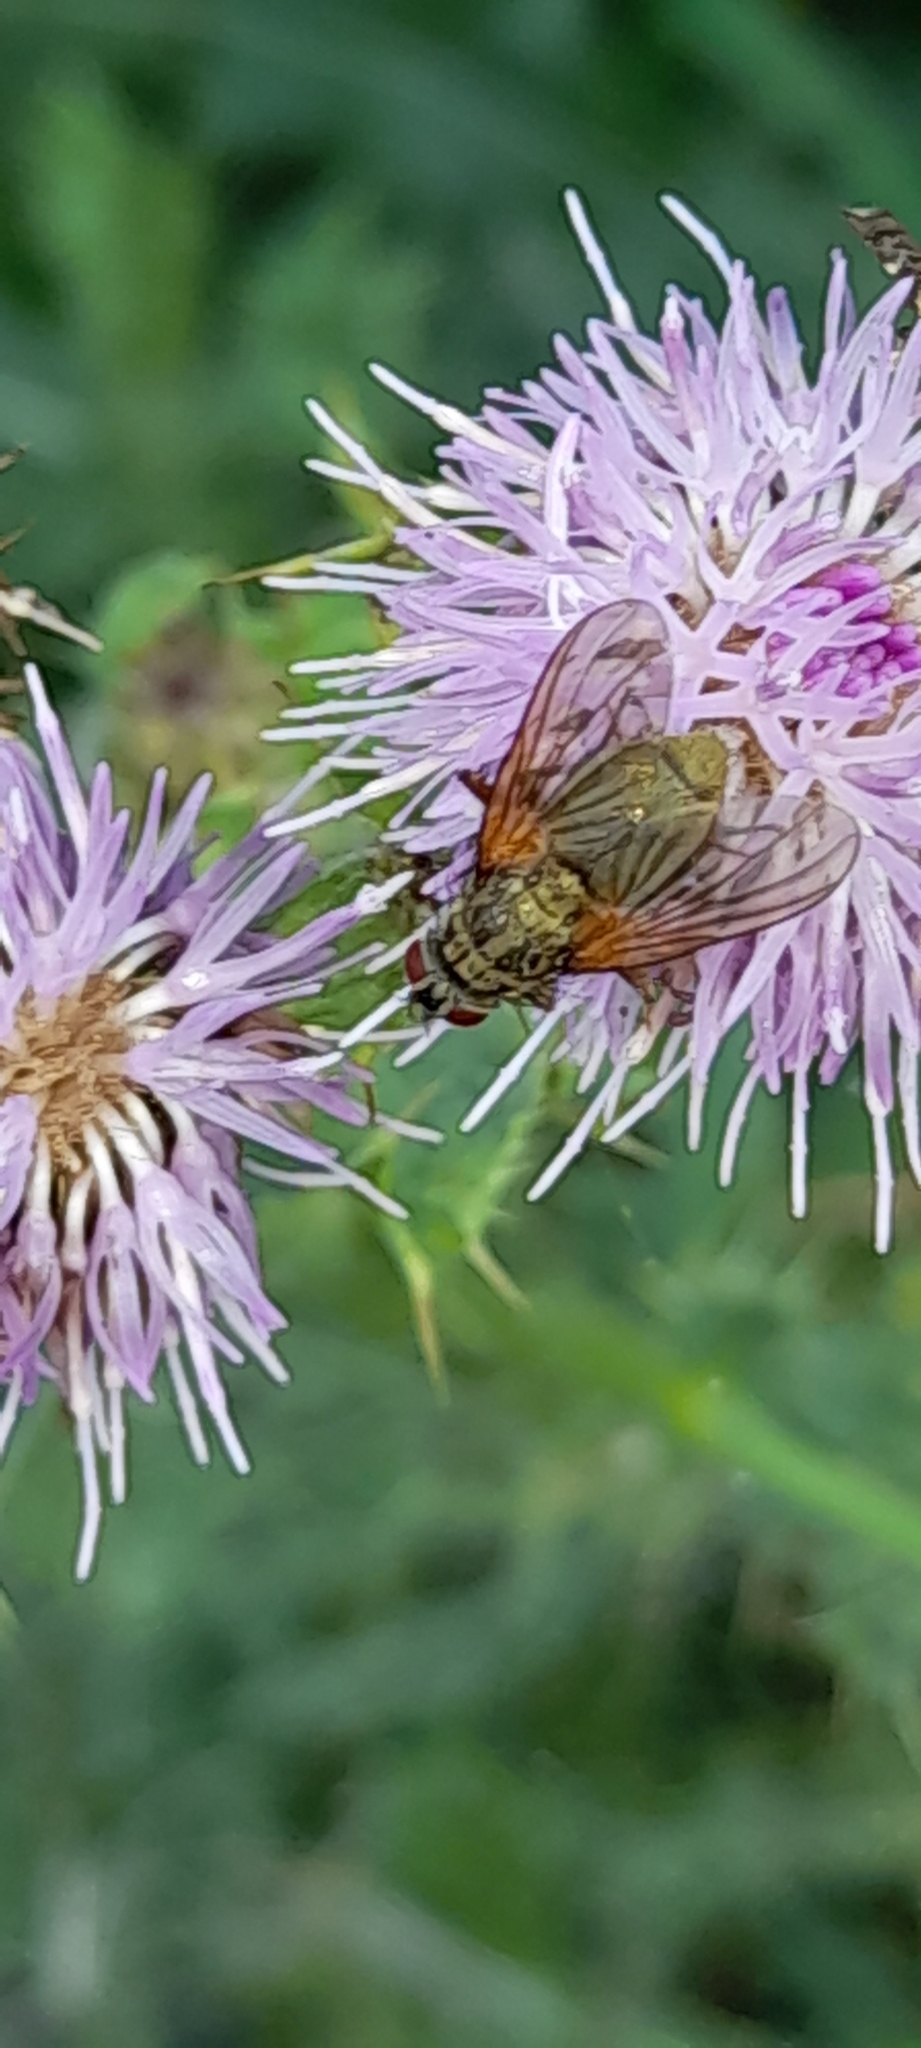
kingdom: Animalia
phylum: Arthropoda
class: Insecta
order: Diptera
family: Muscidae
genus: Phaonia
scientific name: Phaonia angelicae
